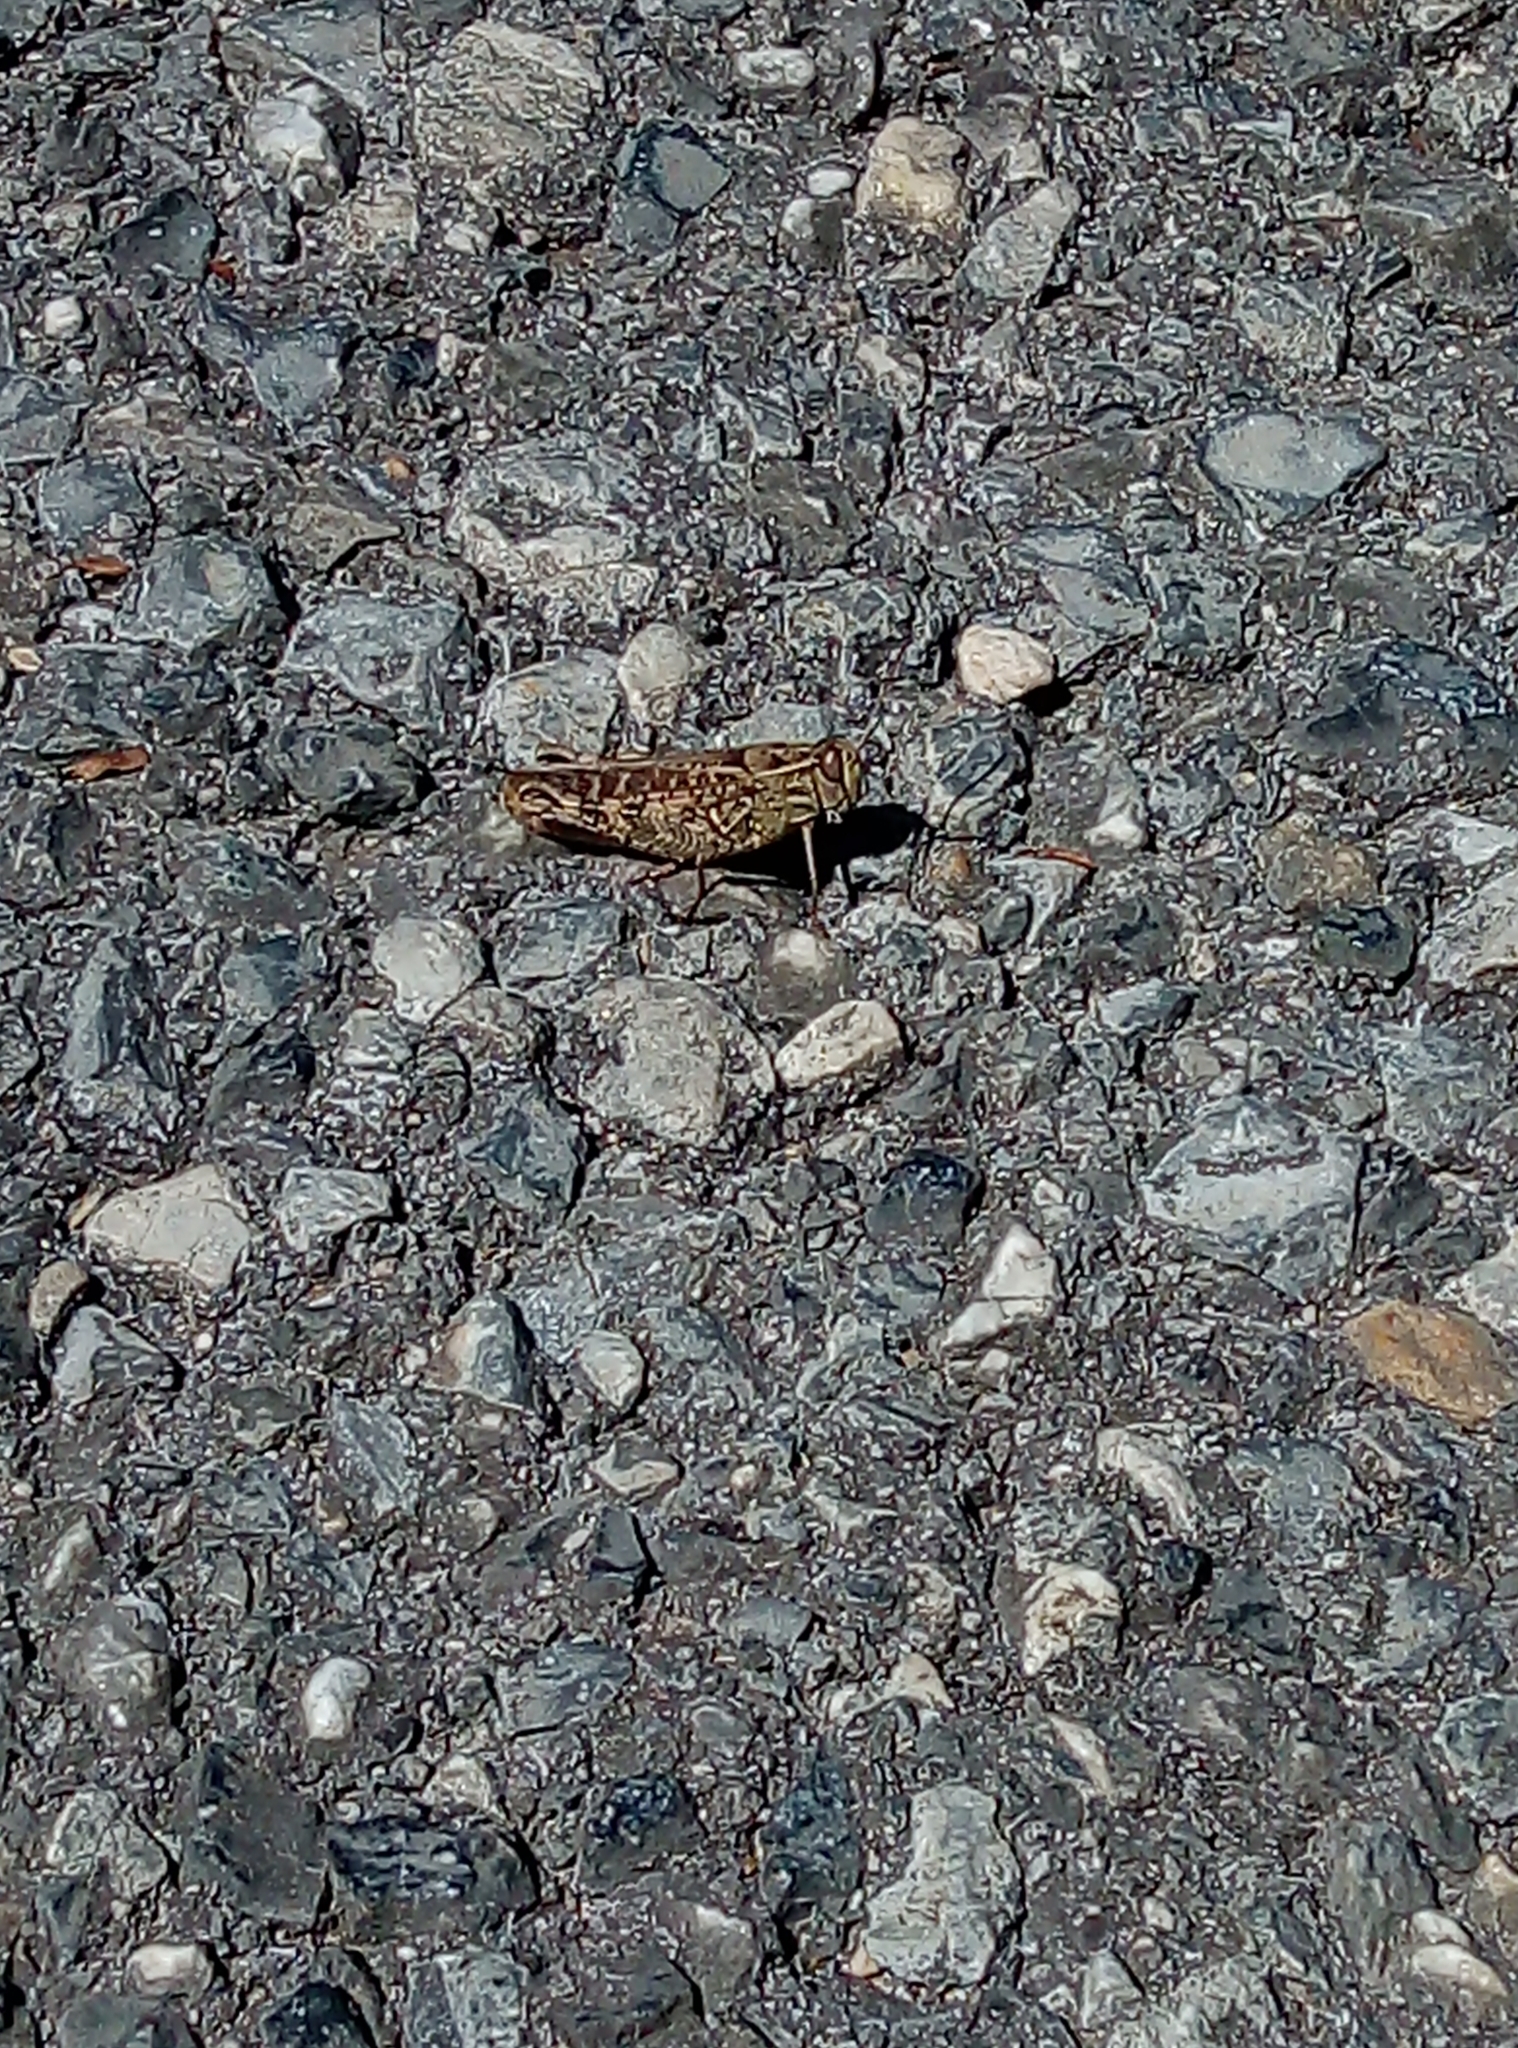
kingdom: Animalia
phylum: Arthropoda
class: Insecta
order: Orthoptera
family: Acrididae
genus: Calliptamus
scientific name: Calliptamus italicus
